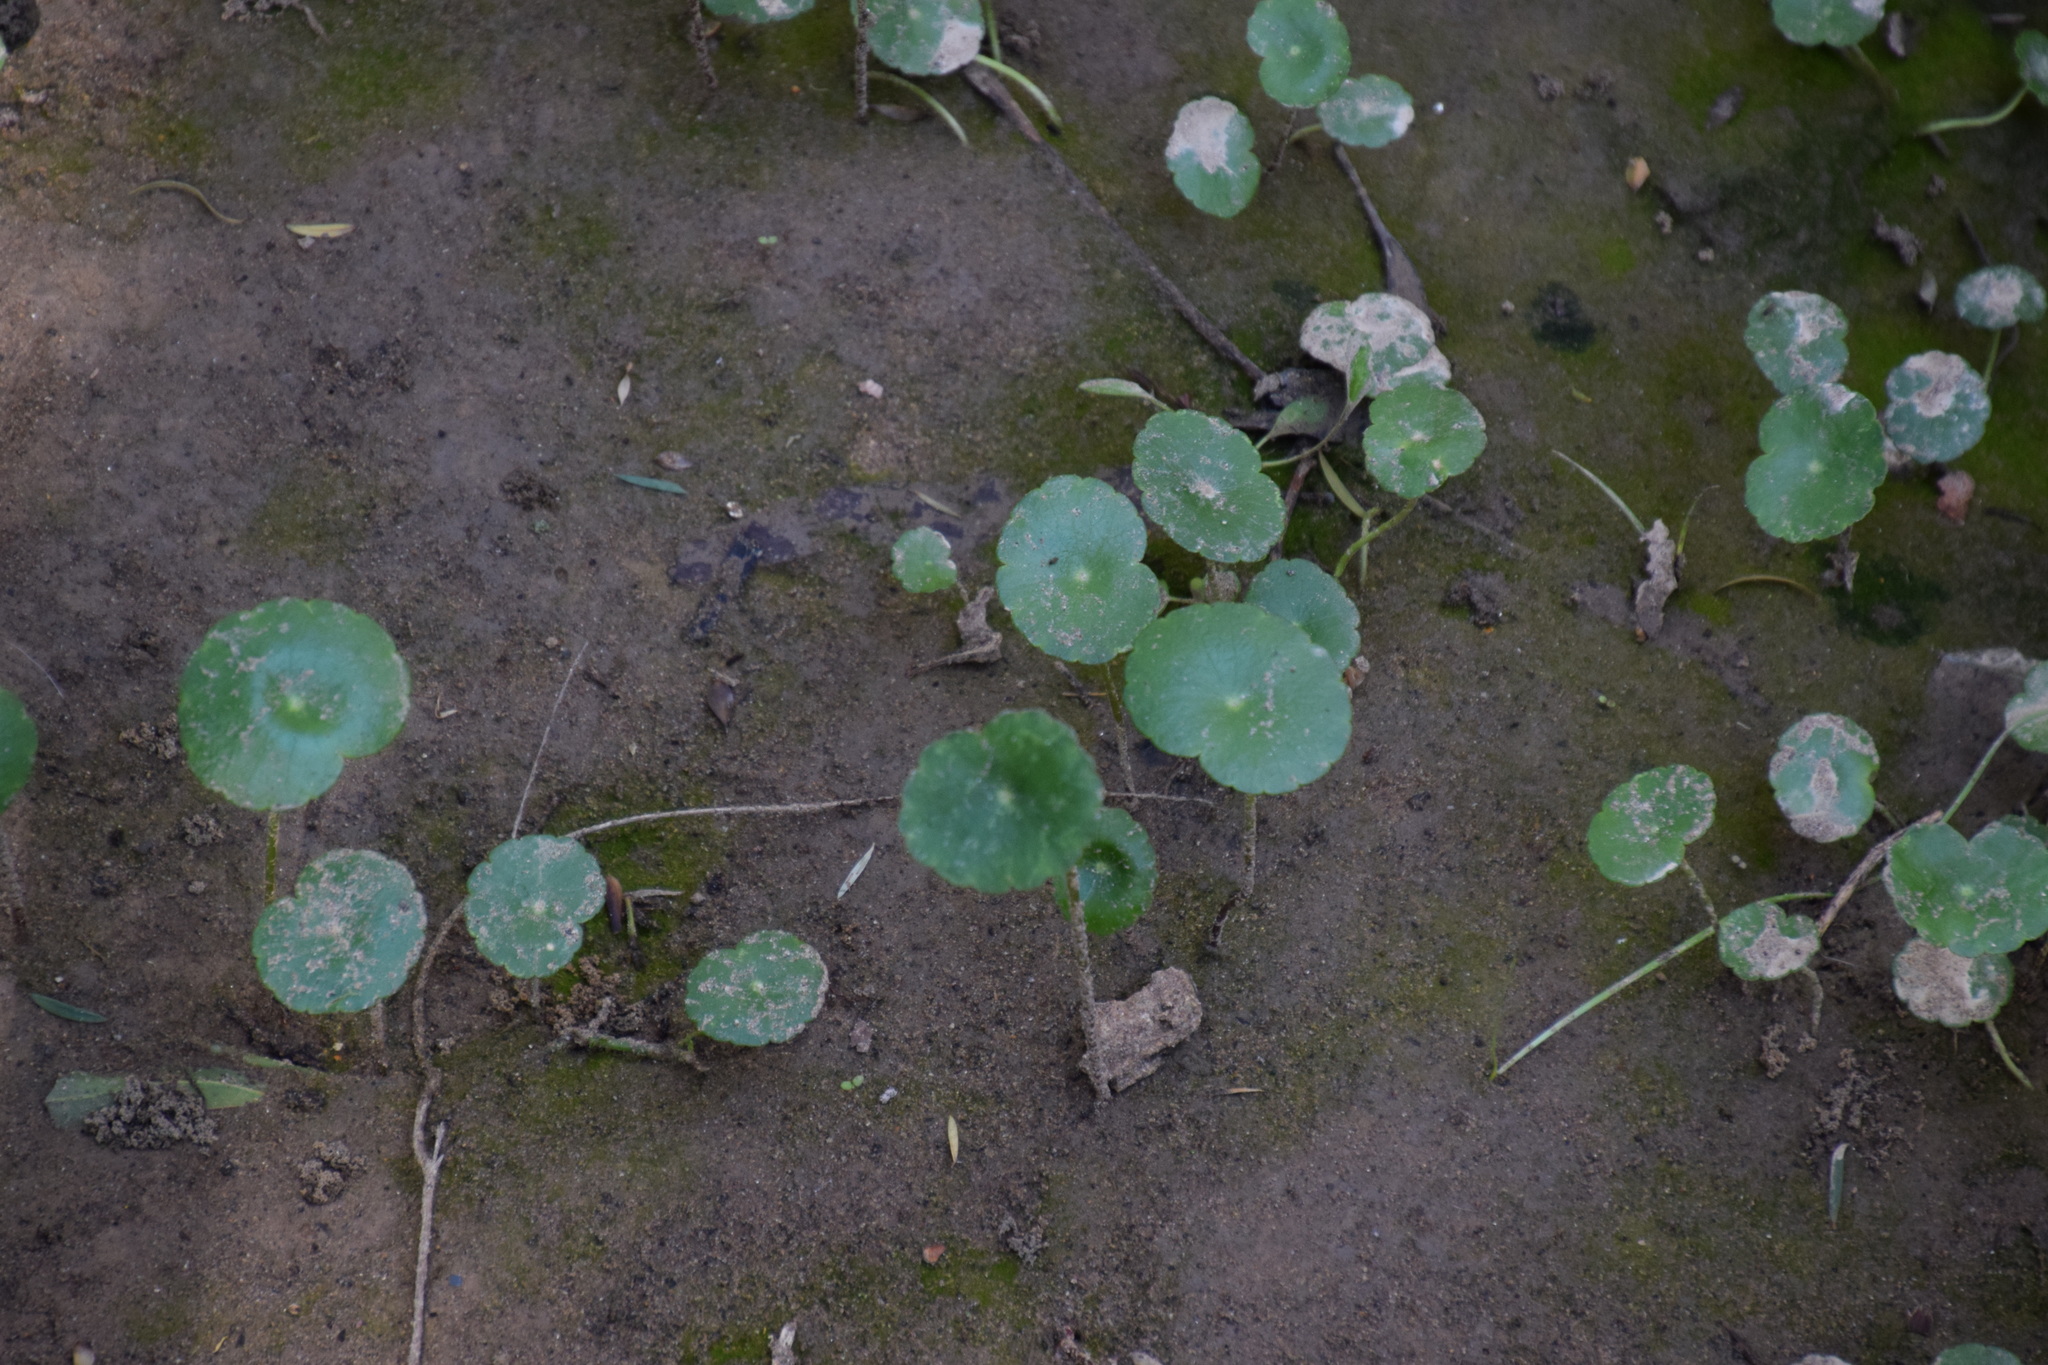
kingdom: Plantae
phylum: Tracheophyta
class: Magnoliopsida
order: Apiales
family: Araliaceae
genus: Hydrocotyle
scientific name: Hydrocotyle bonariensis
